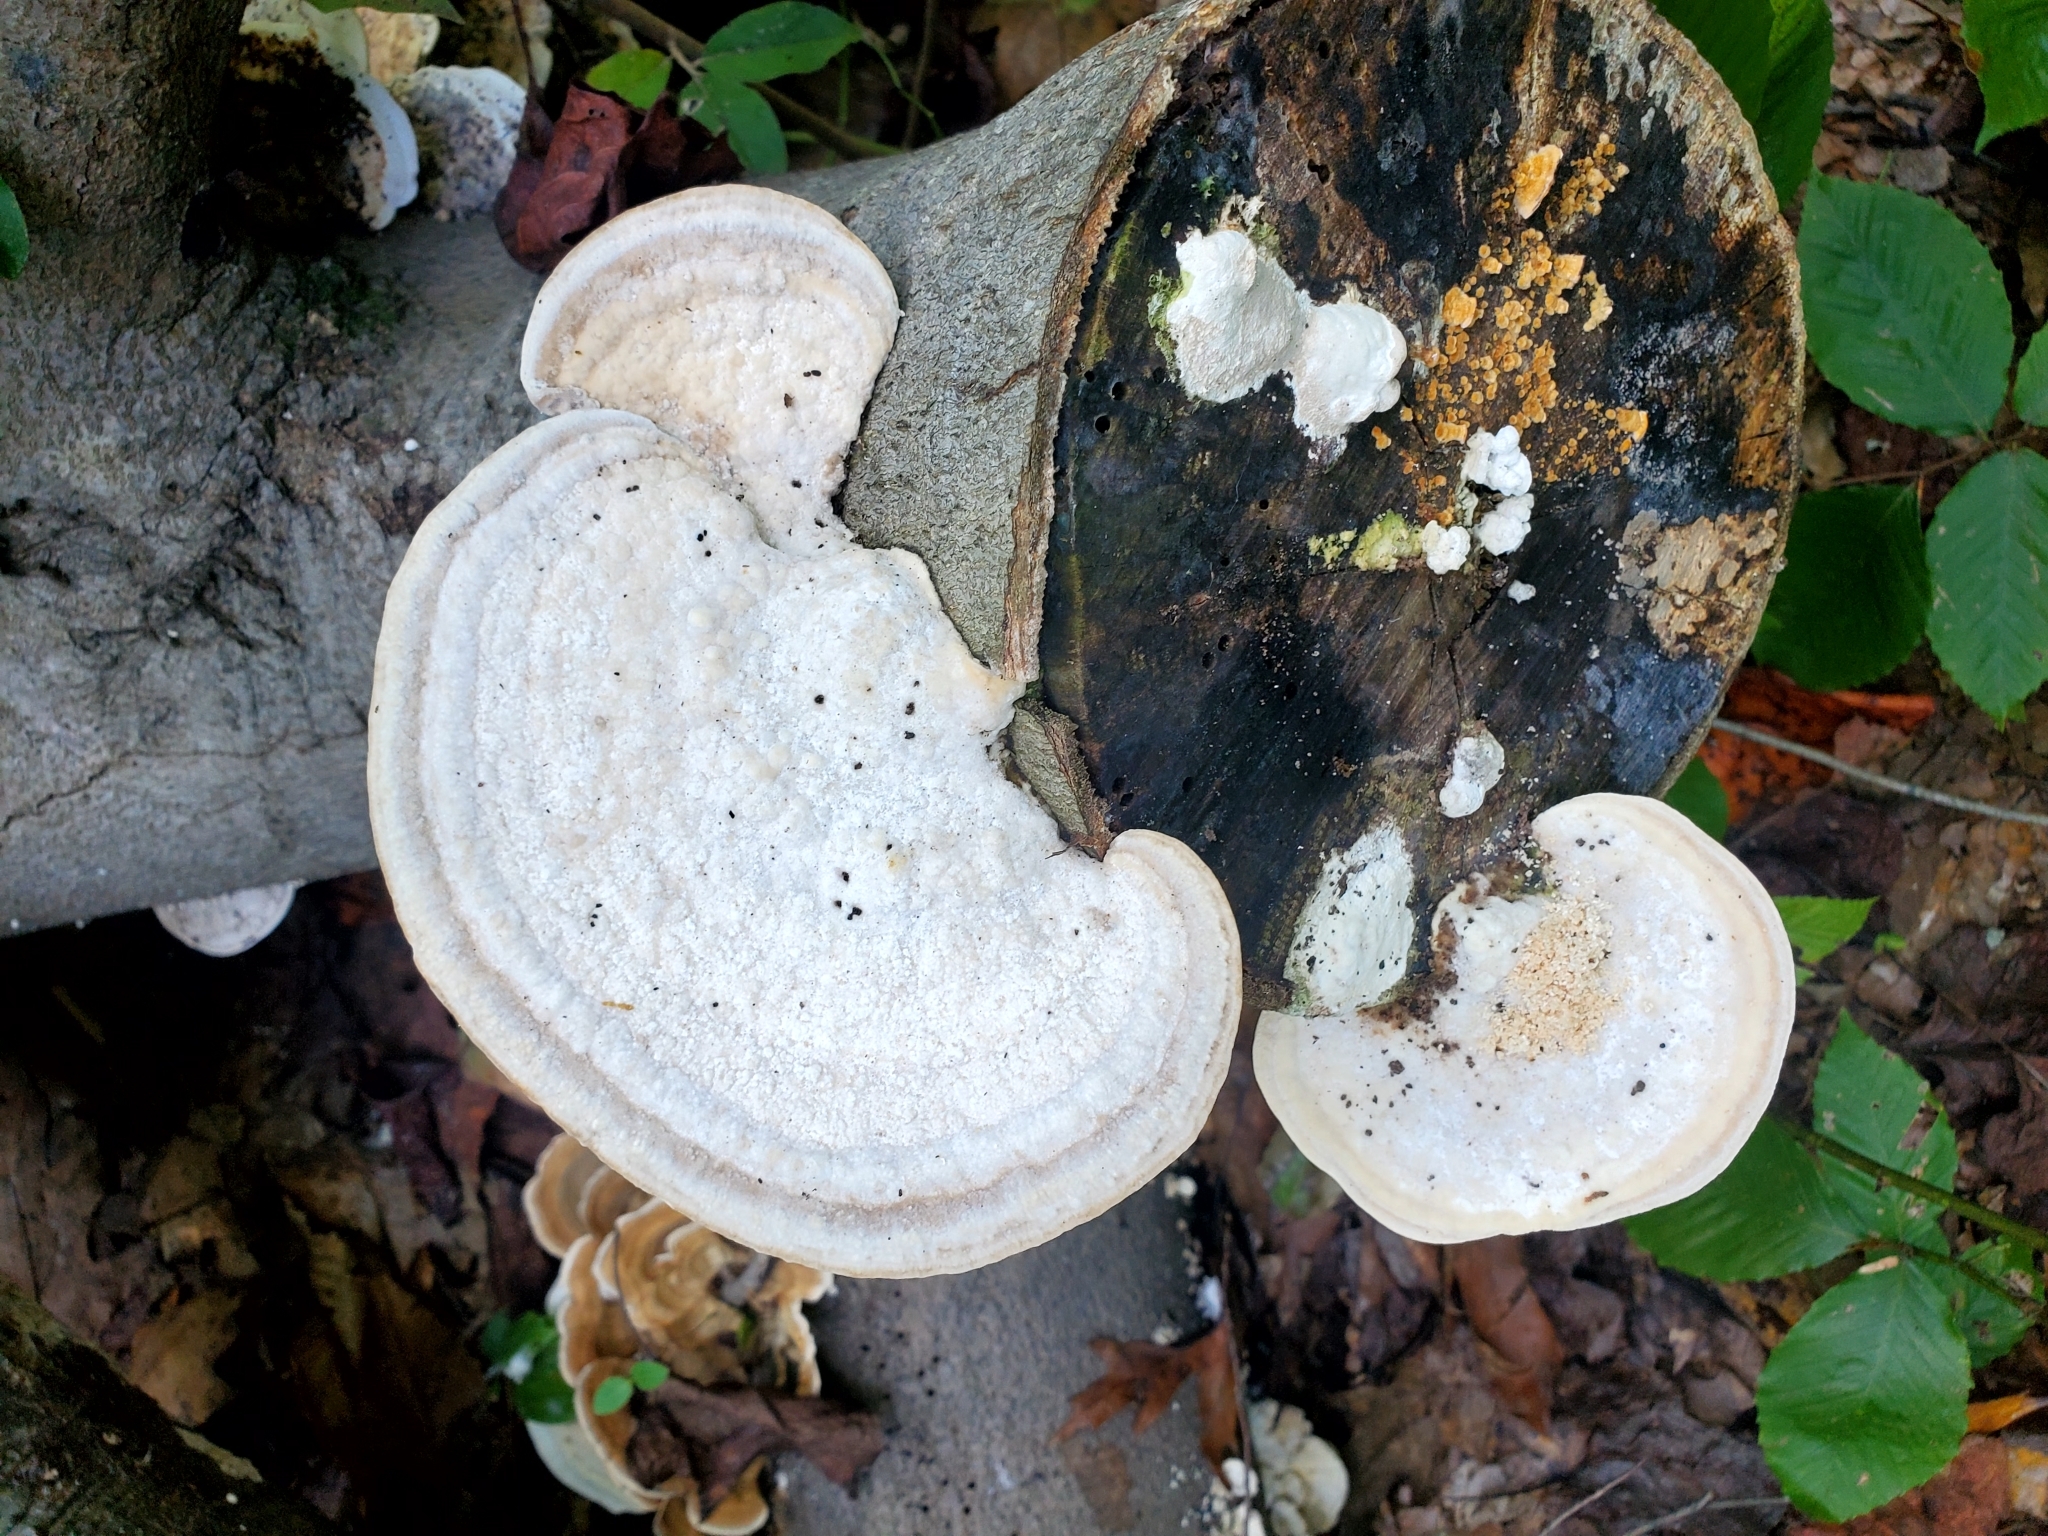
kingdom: Fungi
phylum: Basidiomycota
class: Agaricomycetes
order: Polyporales
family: Polyporaceae
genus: Trametes
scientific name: Trametes gibbosa
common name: Lumpy bracket
